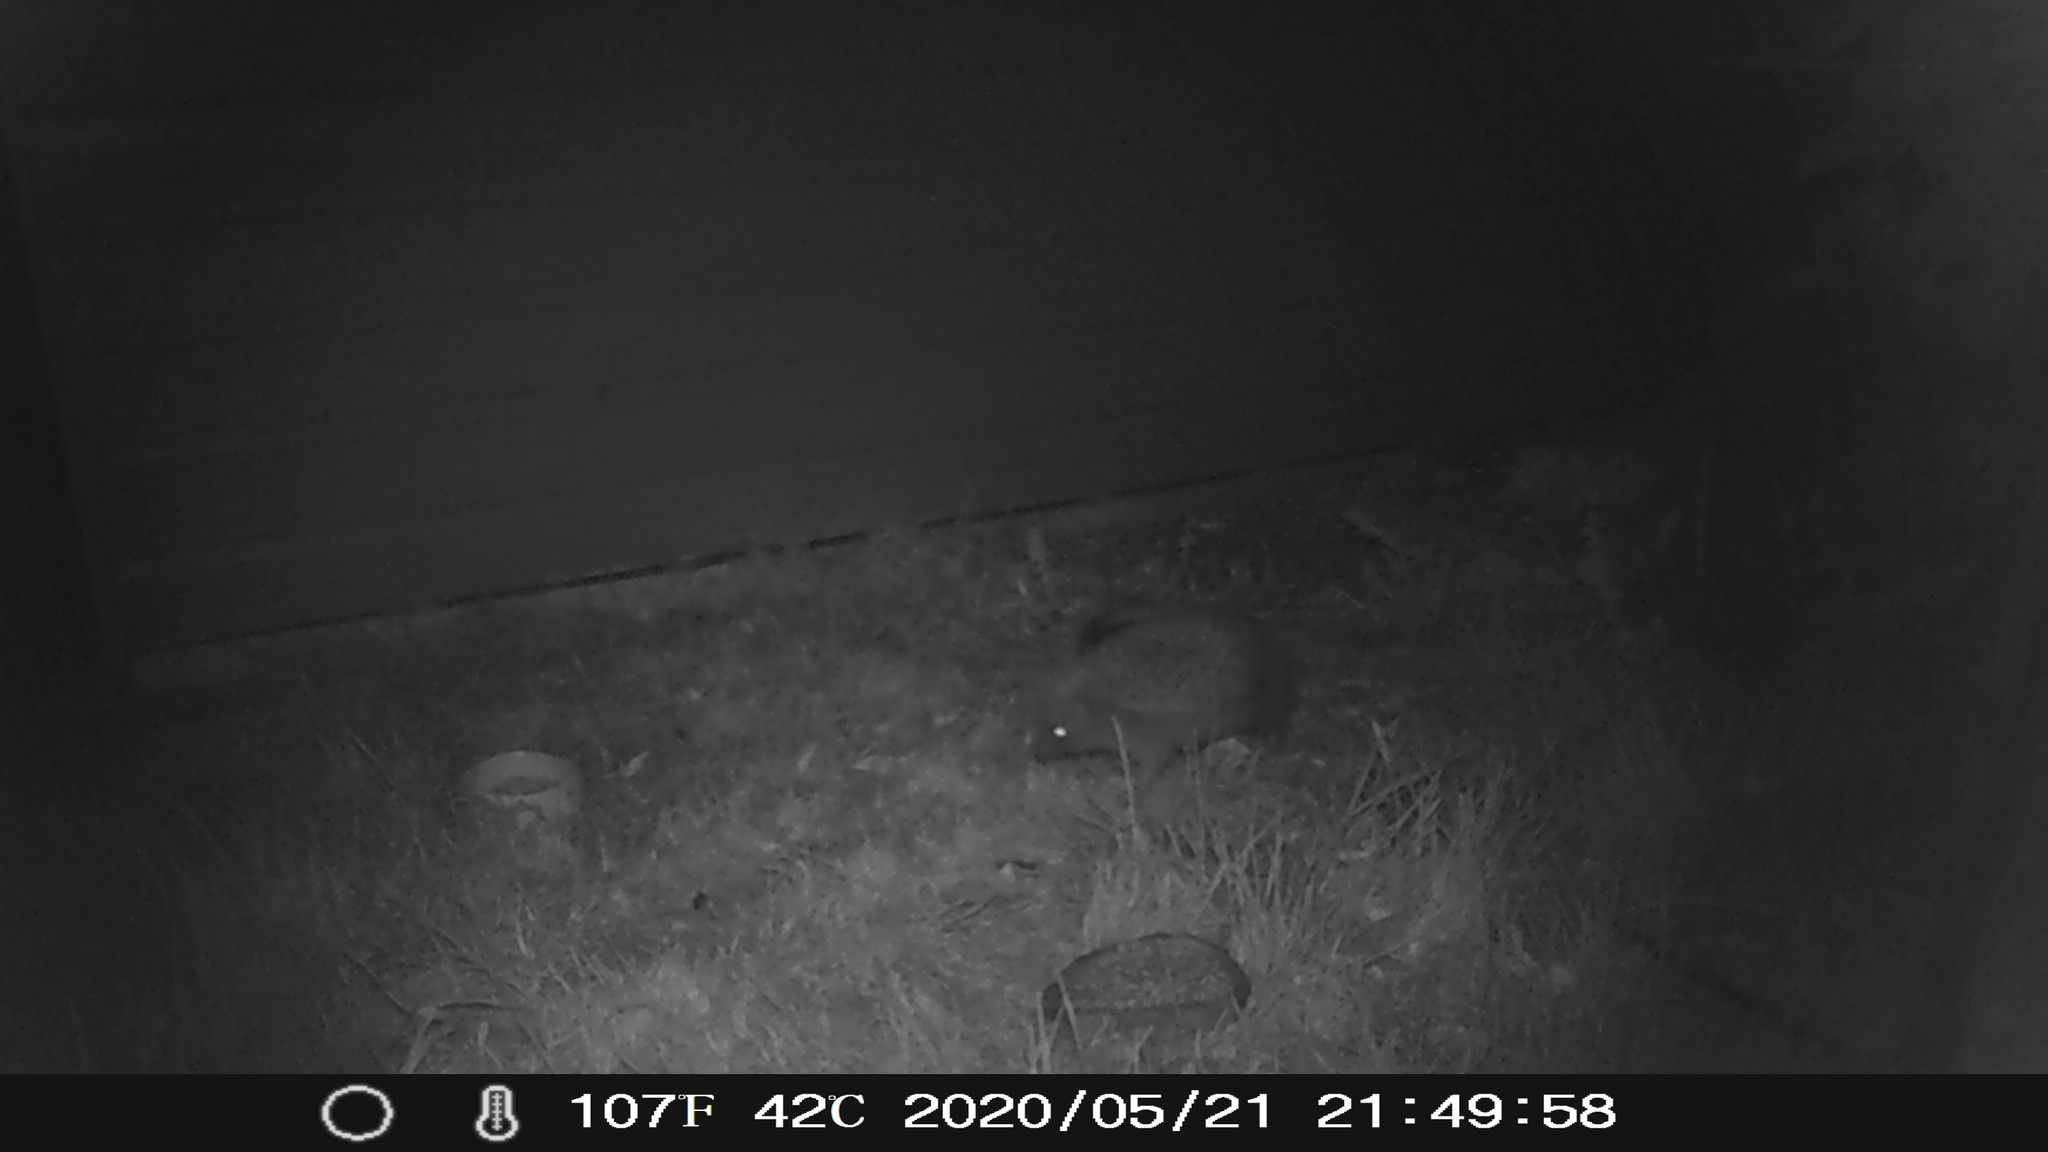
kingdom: Animalia
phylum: Chordata
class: Mammalia
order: Erinaceomorpha
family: Erinaceidae
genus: Erinaceus
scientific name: Erinaceus europaeus
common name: West european hedgehog
